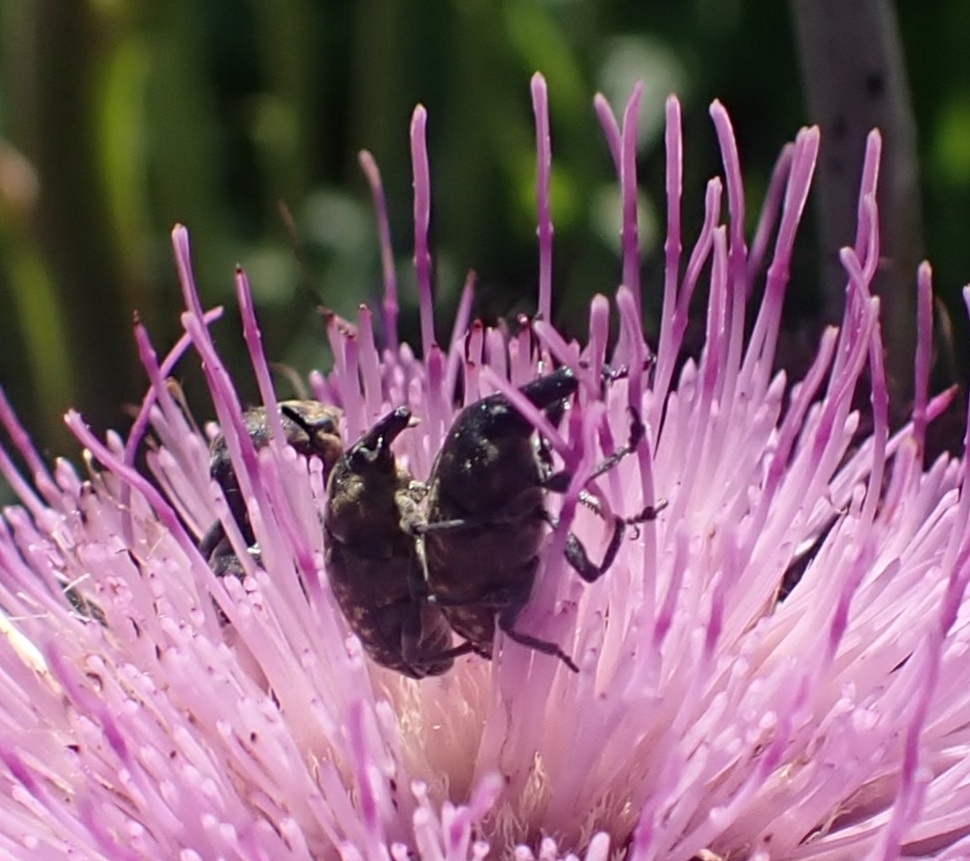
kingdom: Animalia
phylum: Arthropoda
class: Insecta
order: Coleoptera
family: Curculionidae
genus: Larinus
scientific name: Larinus turbinatus
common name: Weevil
